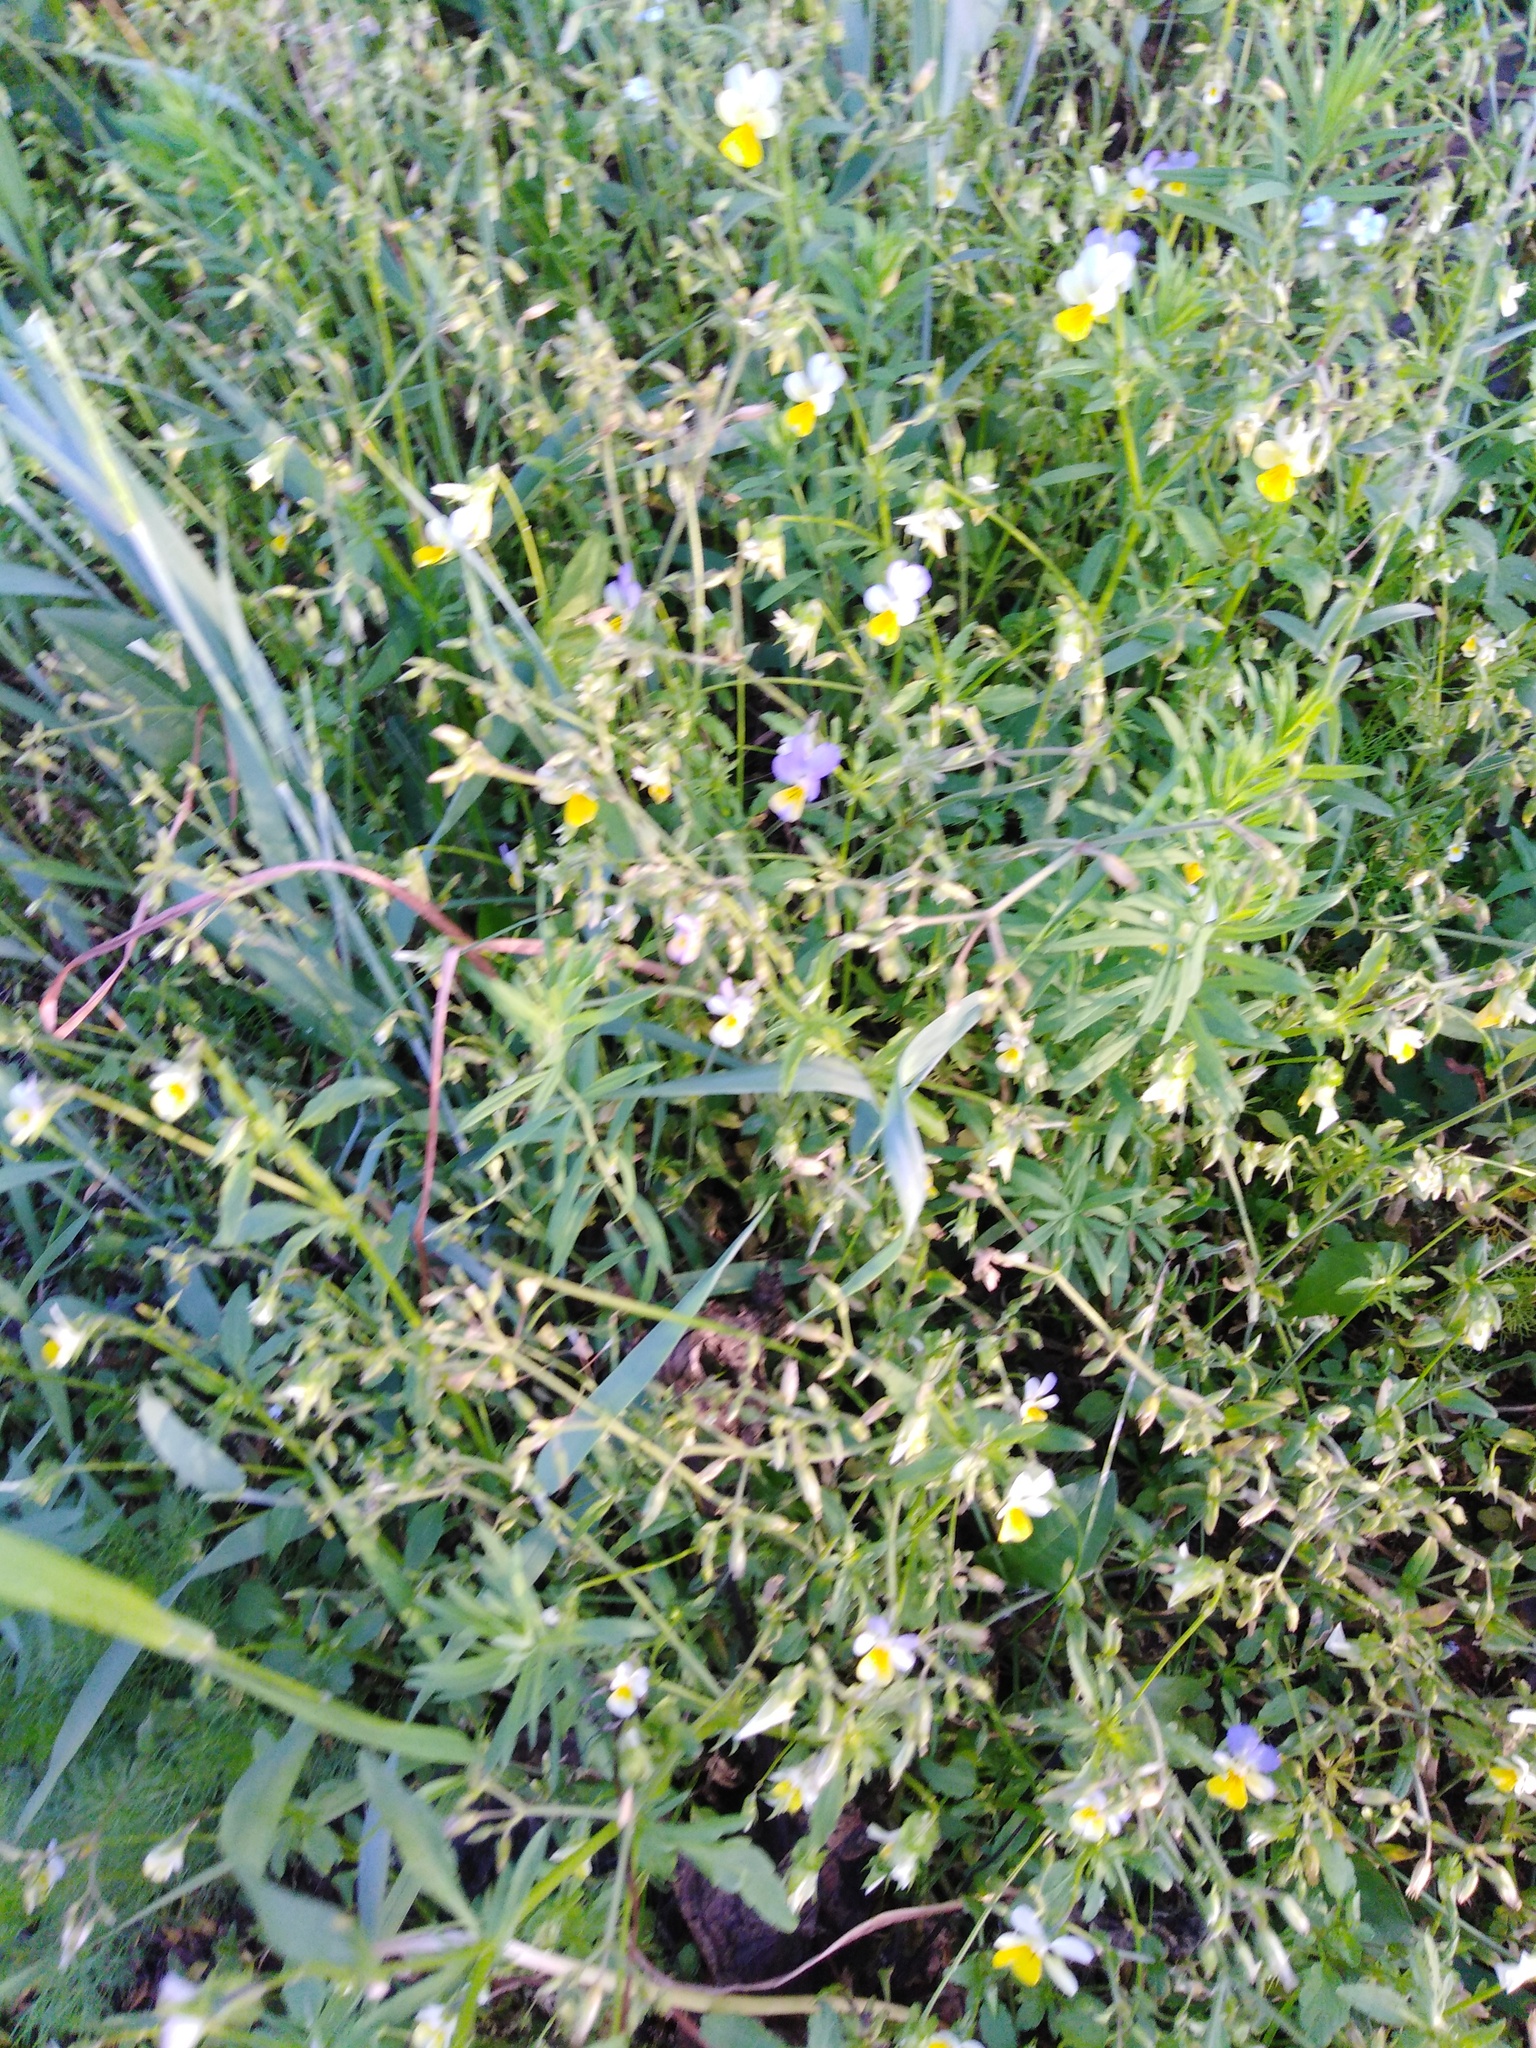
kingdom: Plantae
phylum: Tracheophyta
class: Magnoliopsida
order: Malpighiales
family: Violaceae
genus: Viola
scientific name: Viola tricolor
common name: Pansy
